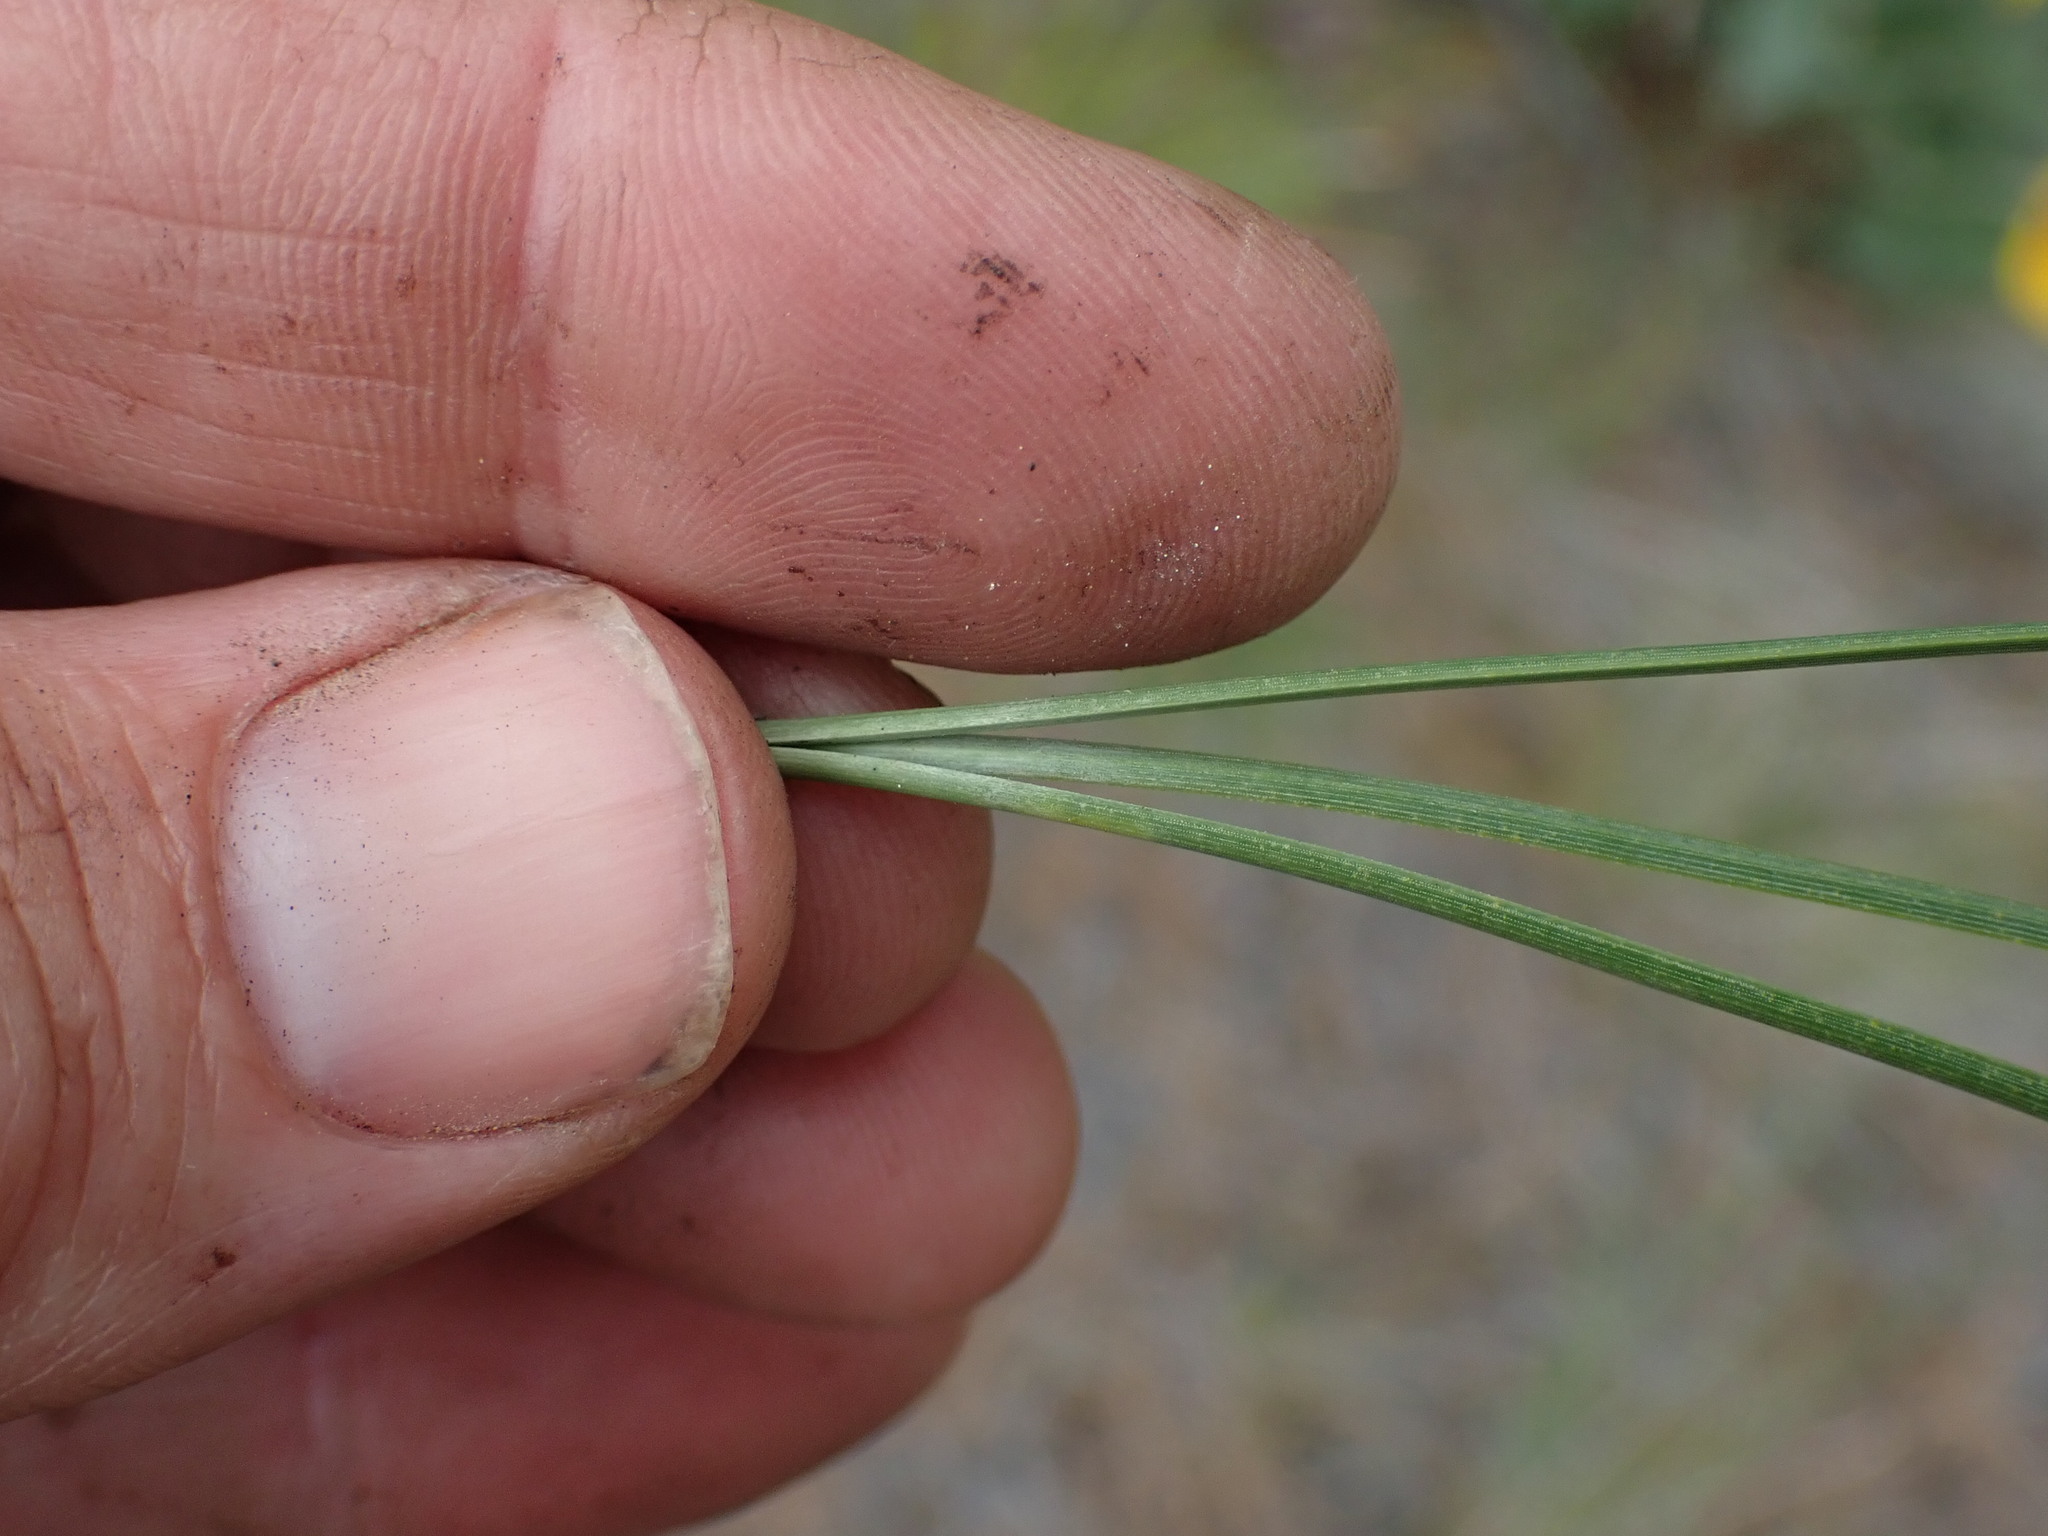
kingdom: Plantae
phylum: Tracheophyta
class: Pinopsida
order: Pinales
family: Pinaceae
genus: Pinus
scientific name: Pinus ponderosa
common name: Western yellow-pine
